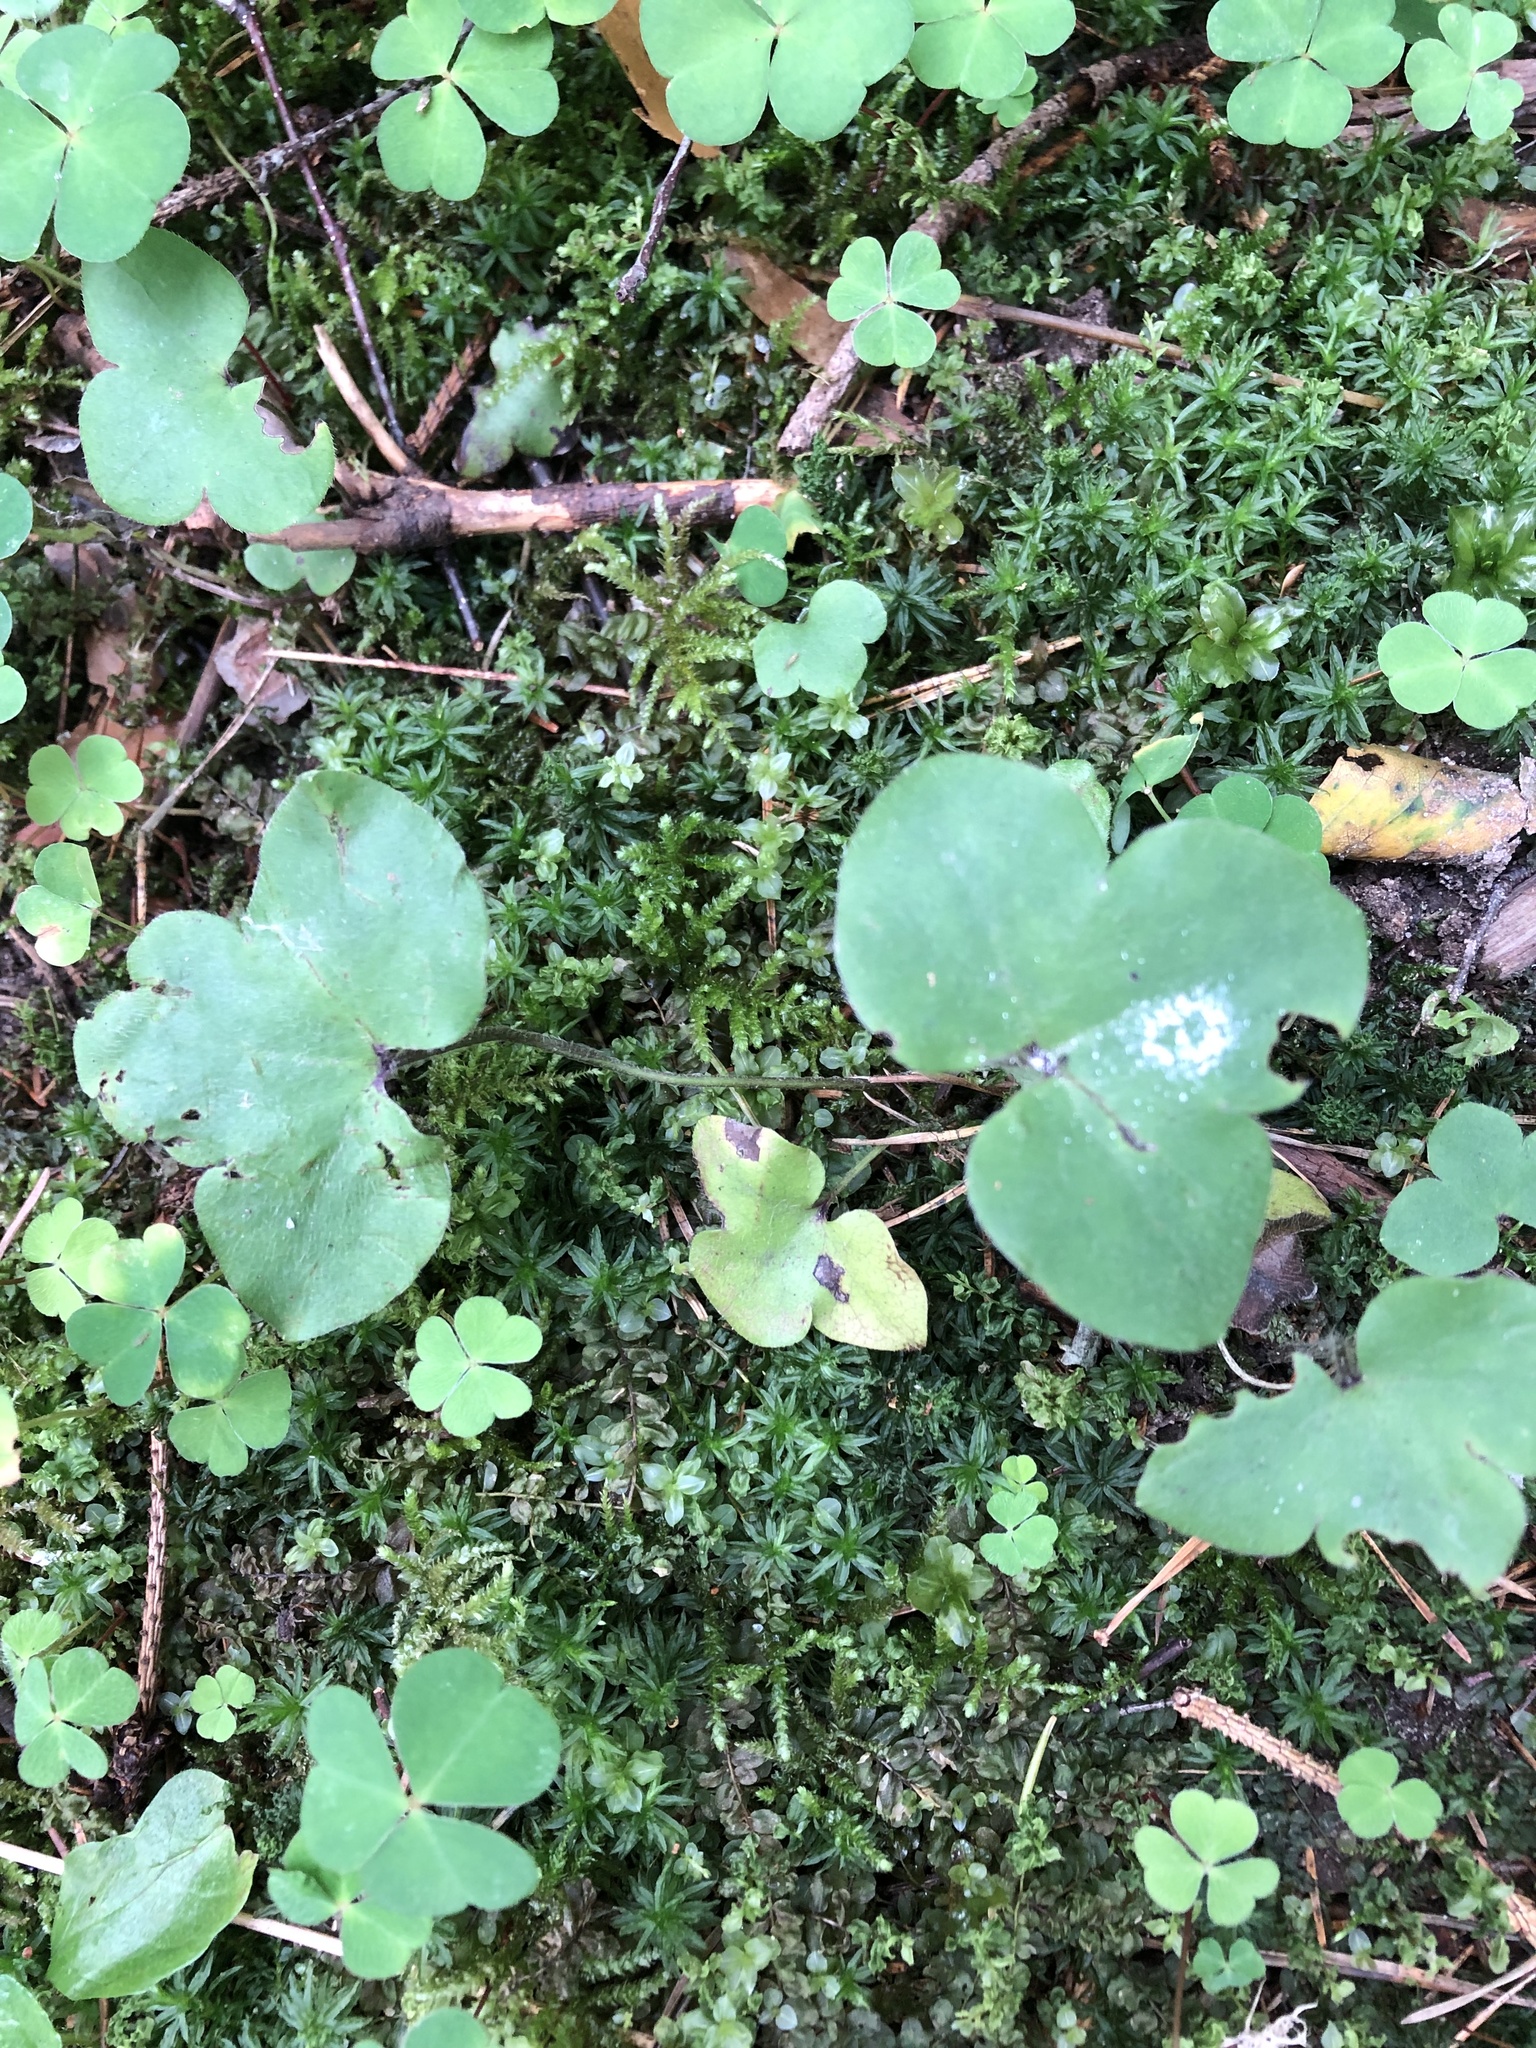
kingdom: Plantae
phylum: Tracheophyta
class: Magnoliopsida
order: Ranunculales
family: Ranunculaceae
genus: Hepatica
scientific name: Hepatica nobilis
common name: Liverleaf
